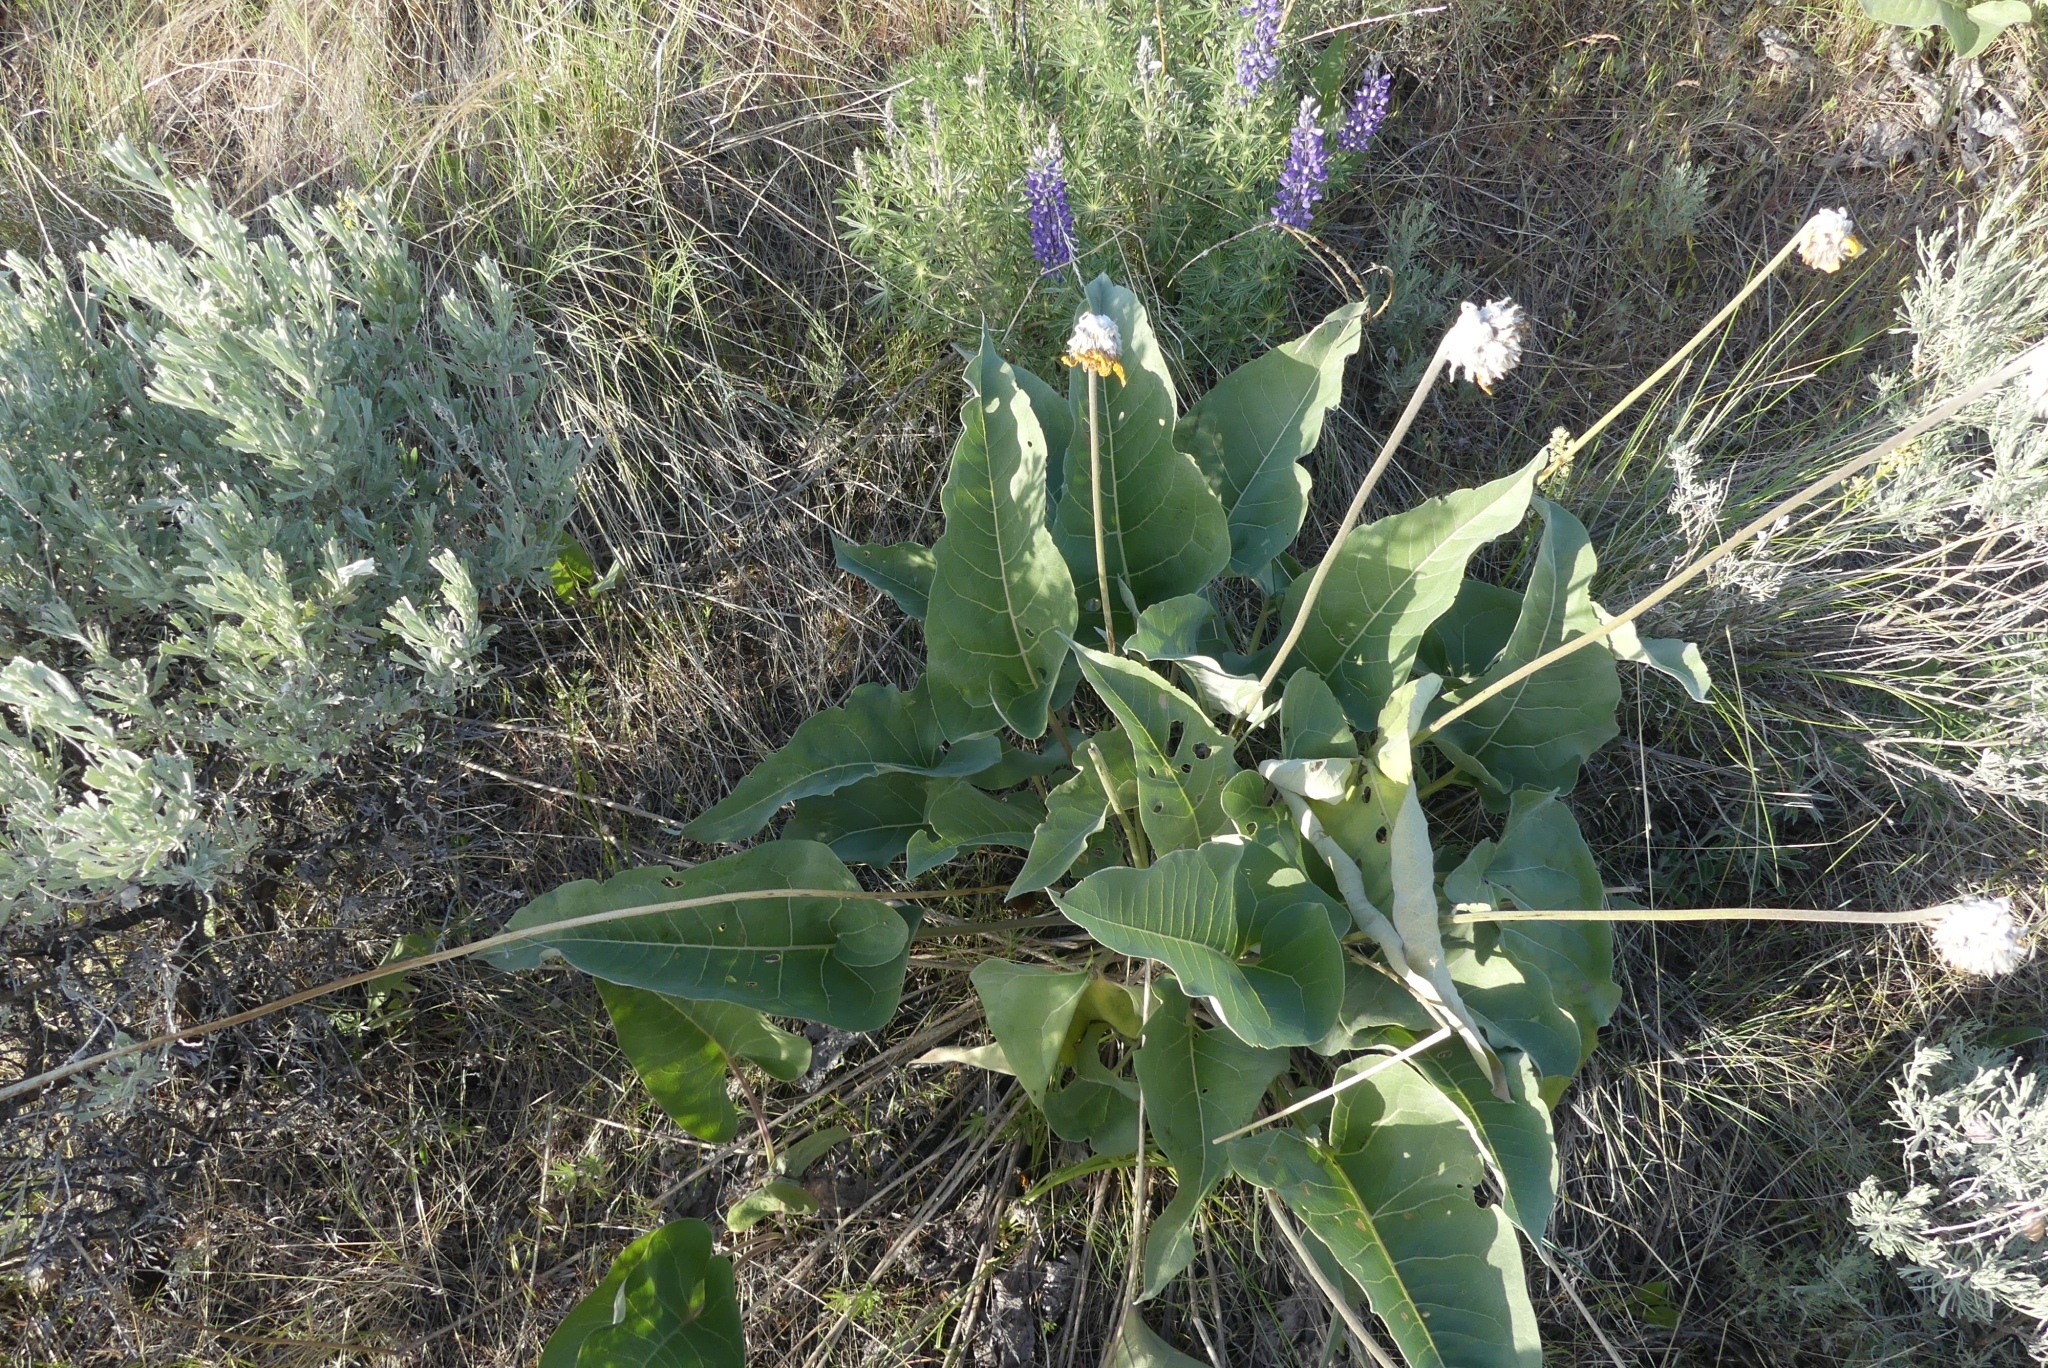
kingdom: Plantae
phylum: Tracheophyta
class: Magnoliopsida
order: Asterales
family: Asteraceae
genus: Wyethia
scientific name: Wyethia sagittata
